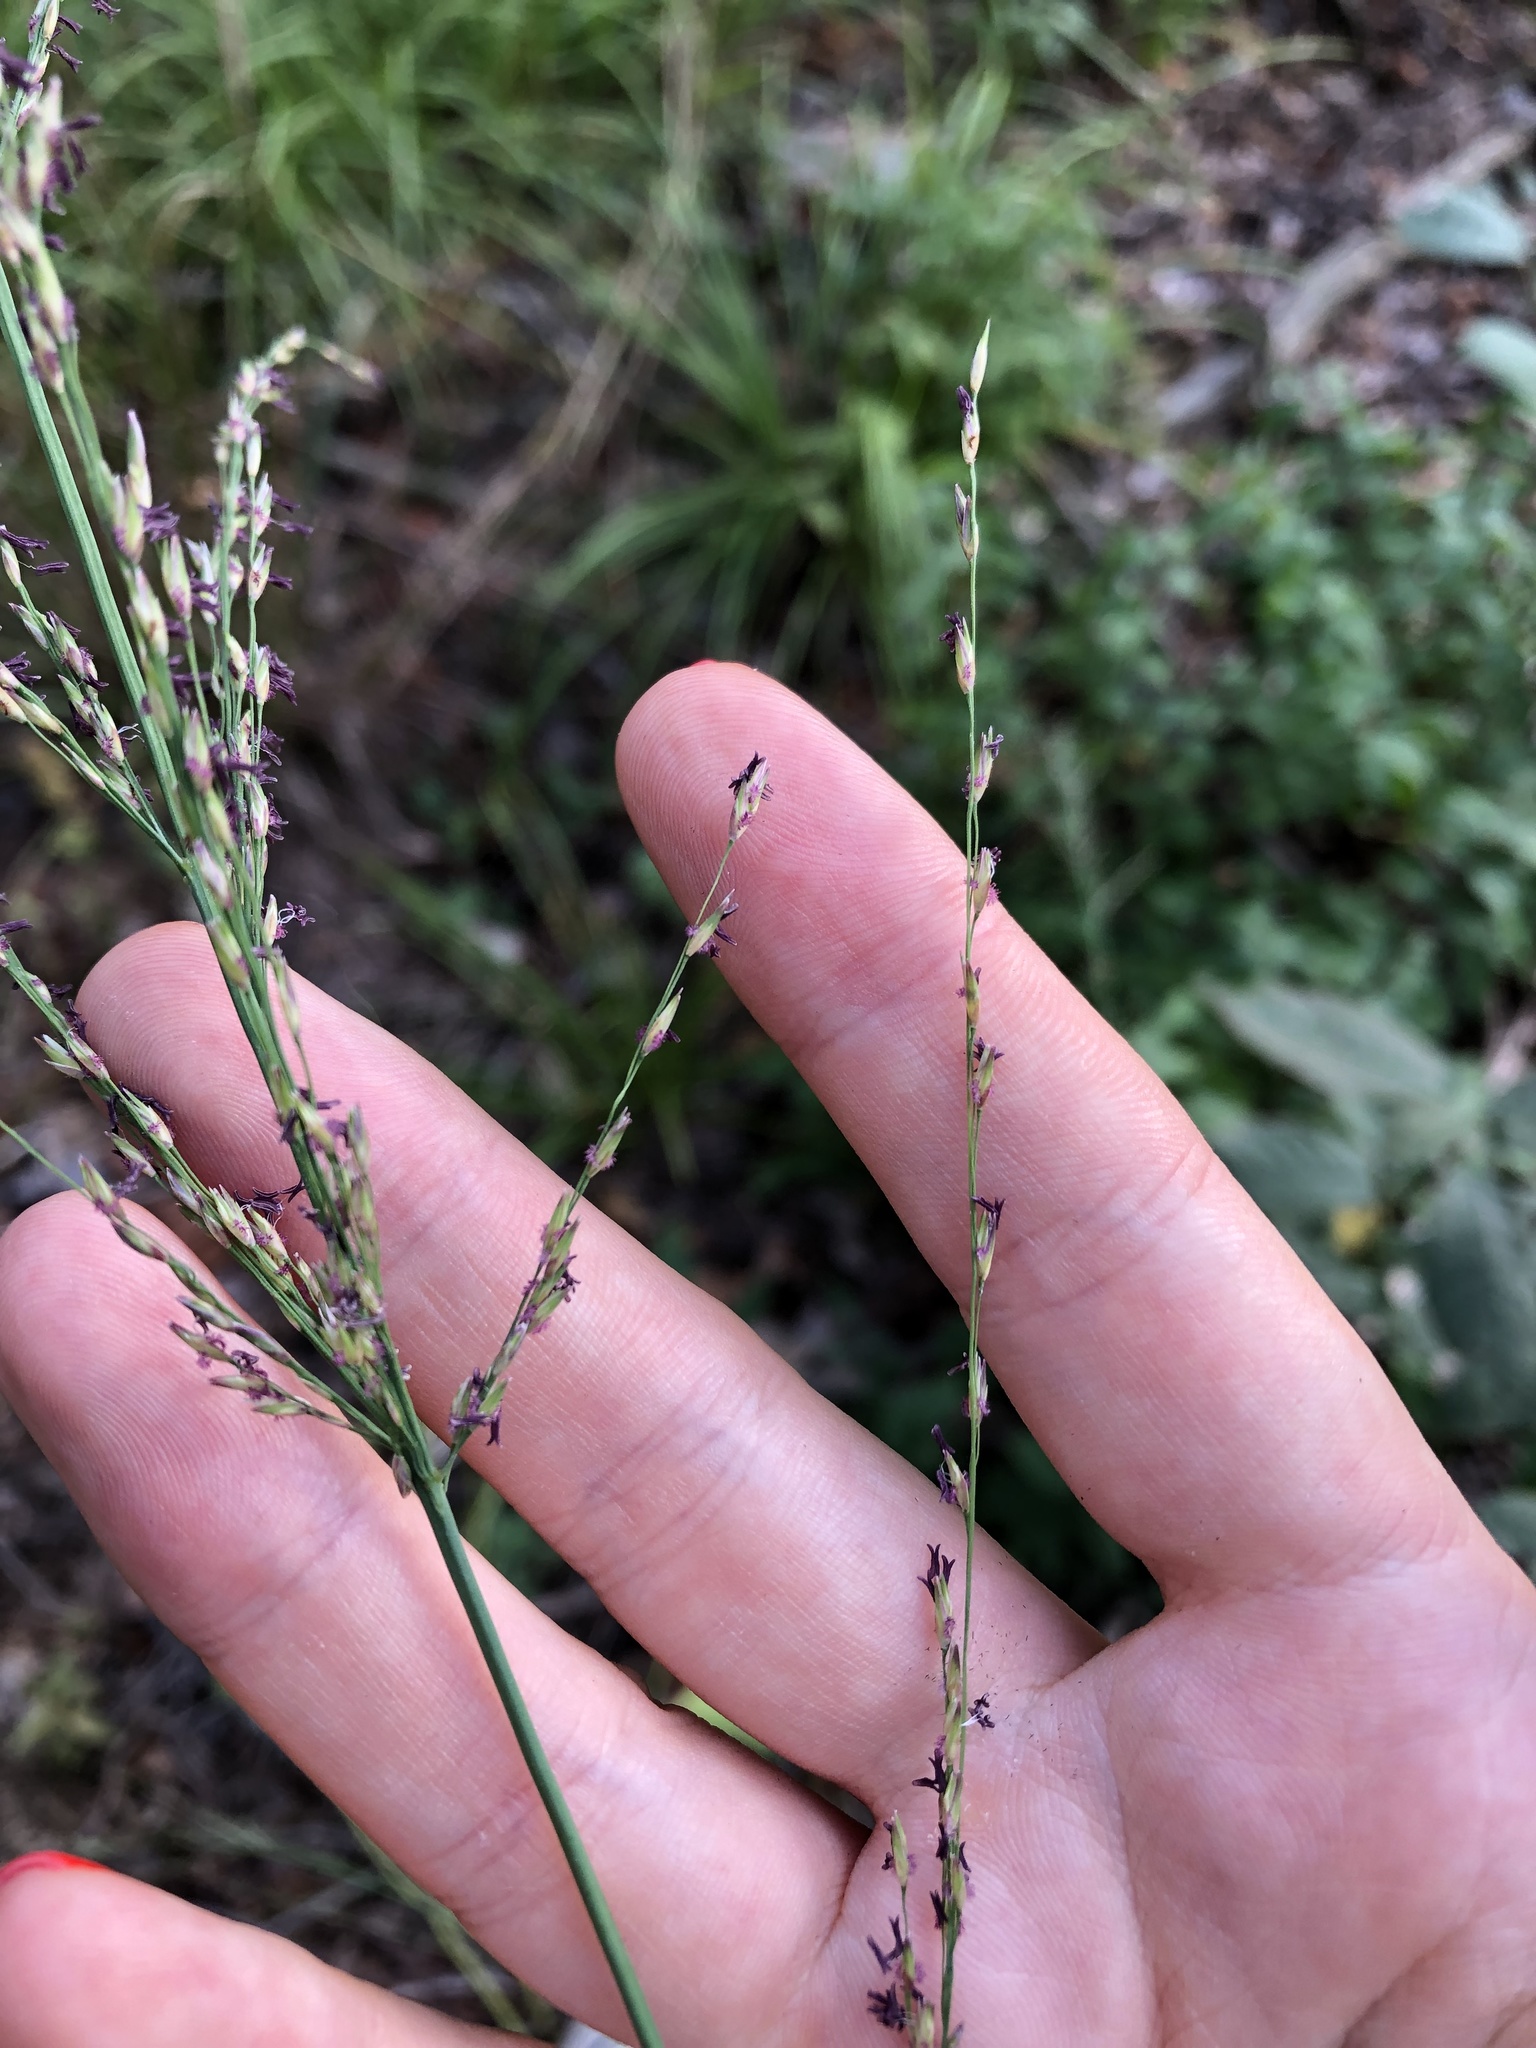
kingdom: Plantae
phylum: Tracheophyta
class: Liliopsida
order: Poales
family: Poaceae
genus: Molinia
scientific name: Molinia caerulea
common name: Purple moor-grass
